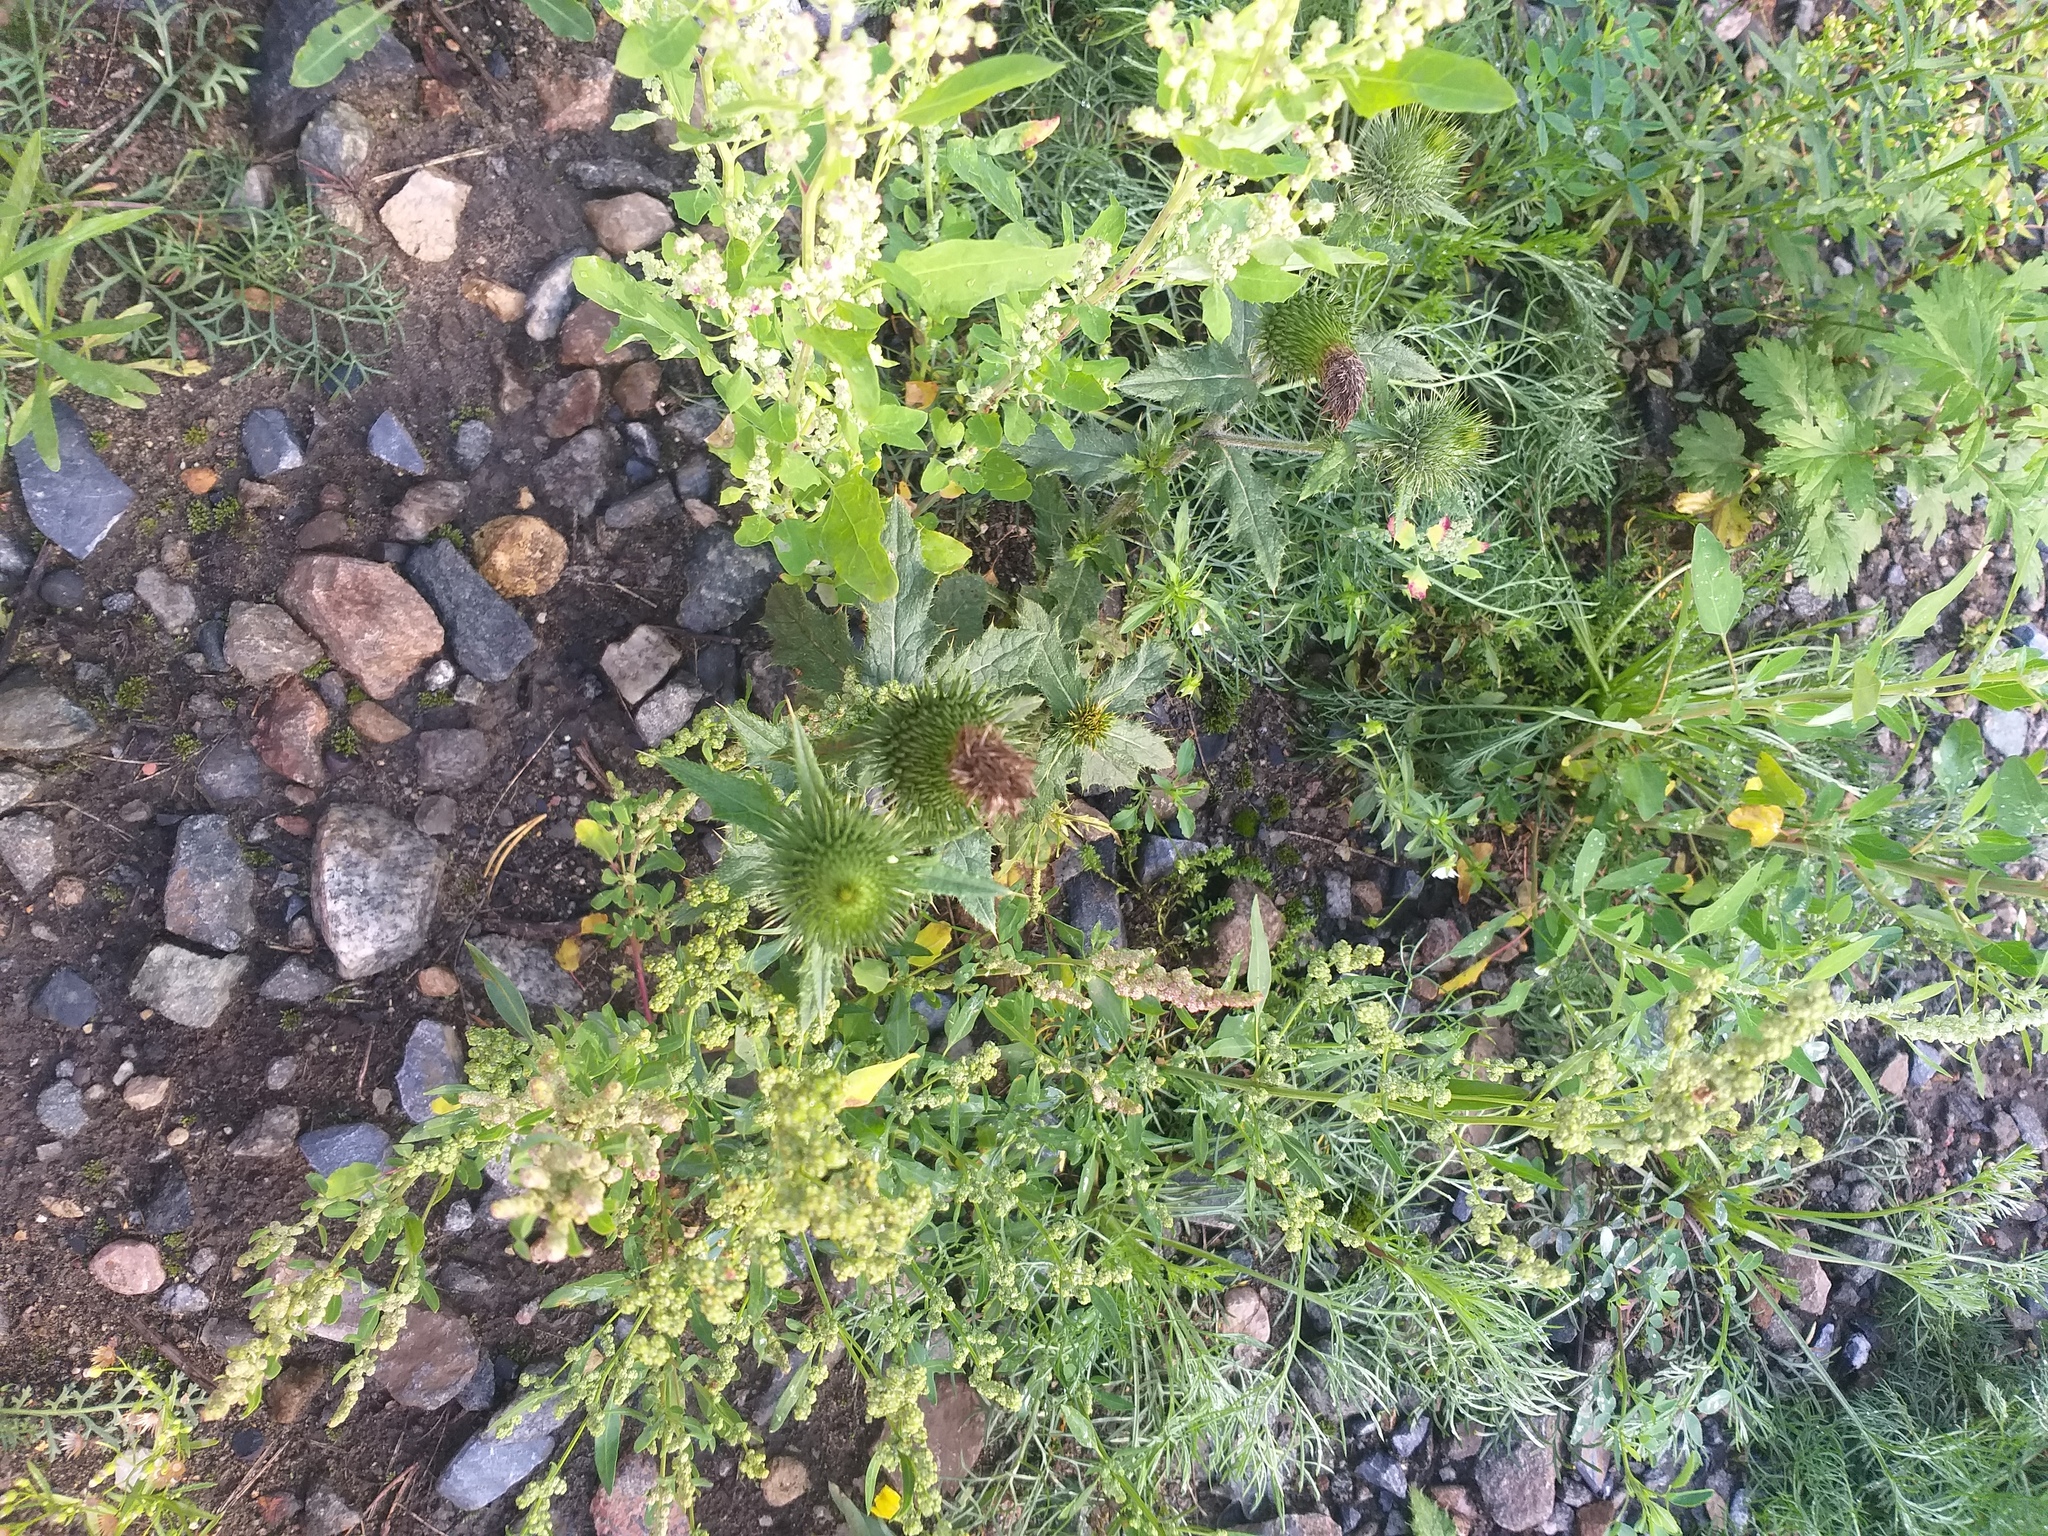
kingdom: Plantae
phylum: Tracheophyta
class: Magnoliopsida
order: Asterales
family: Asteraceae
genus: Cirsium
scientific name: Cirsium vulgare
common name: Bull thistle
